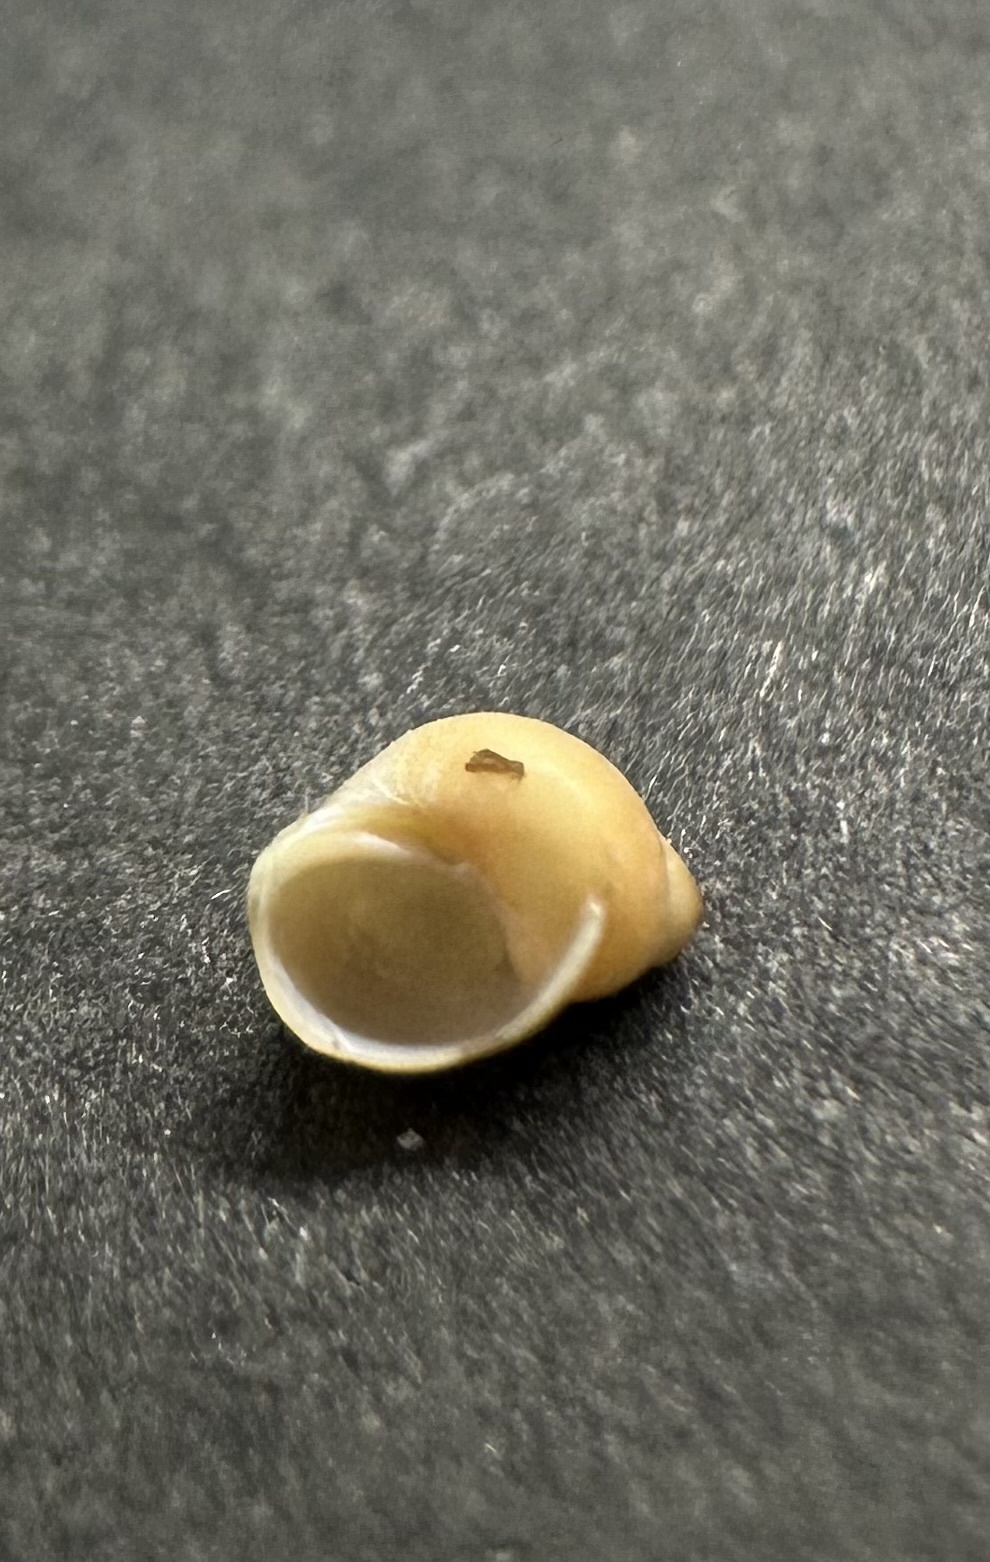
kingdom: Animalia
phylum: Mollusca
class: Gastropoda
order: Littorinimorpha
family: Littorinidae
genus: Lacuna
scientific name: Lacuna vincta
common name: Banded chink shell
